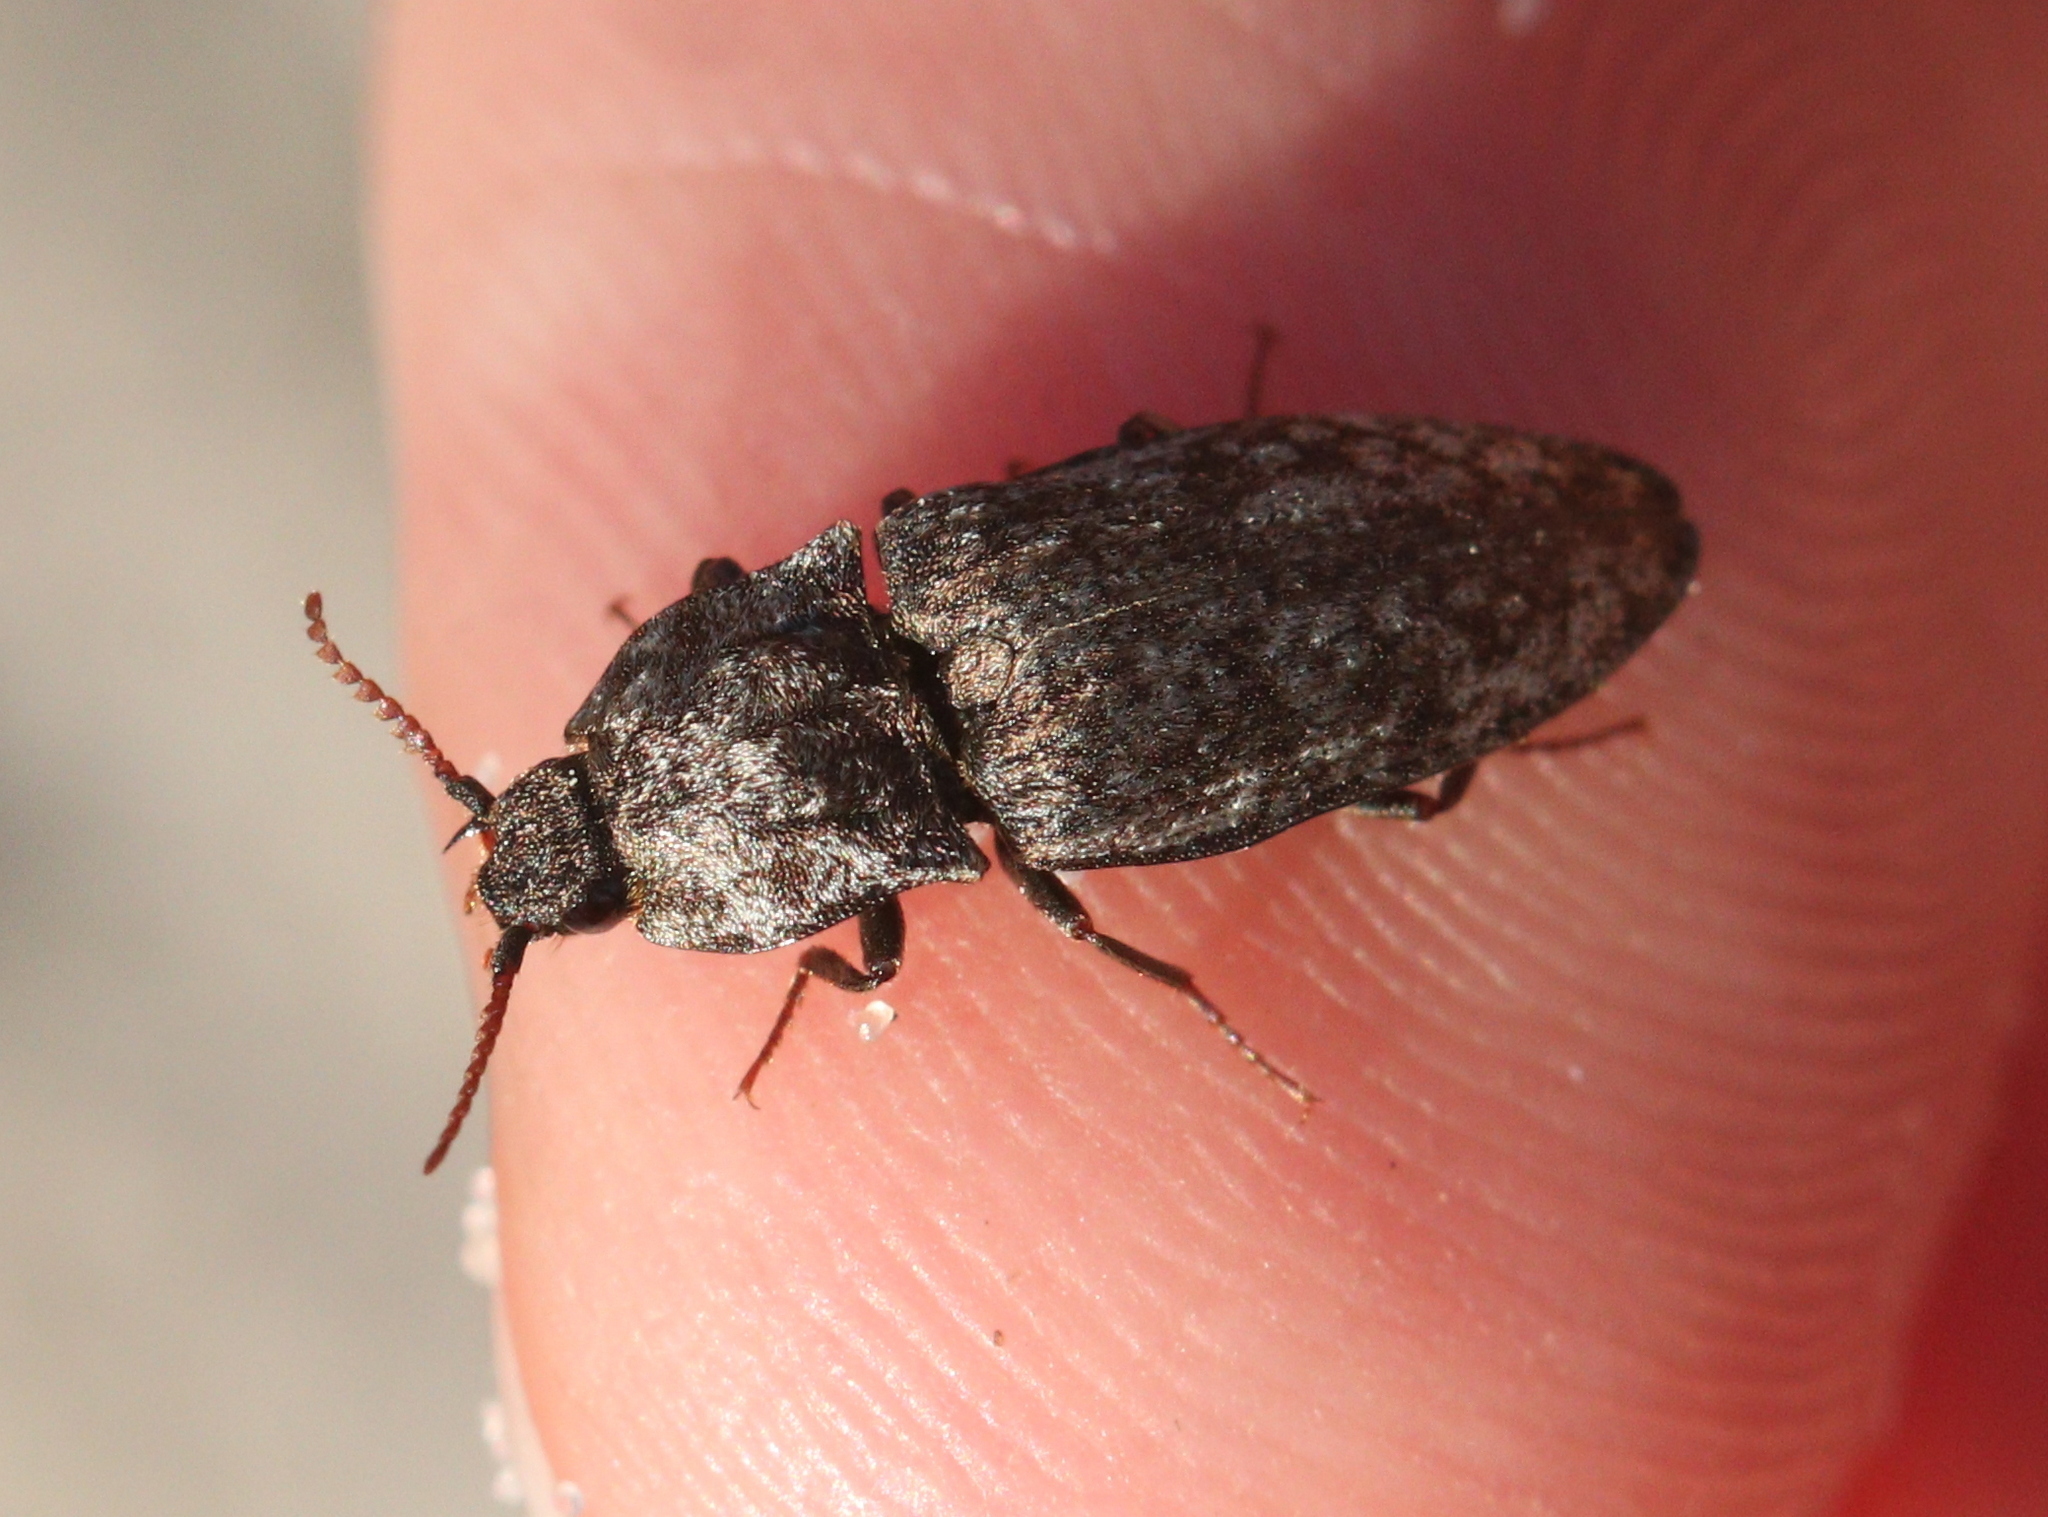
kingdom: Animalia
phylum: Arthropoda
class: Insecta
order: Coleoptera
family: Elateridae
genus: Agrypnus
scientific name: Agrypnus murinus
